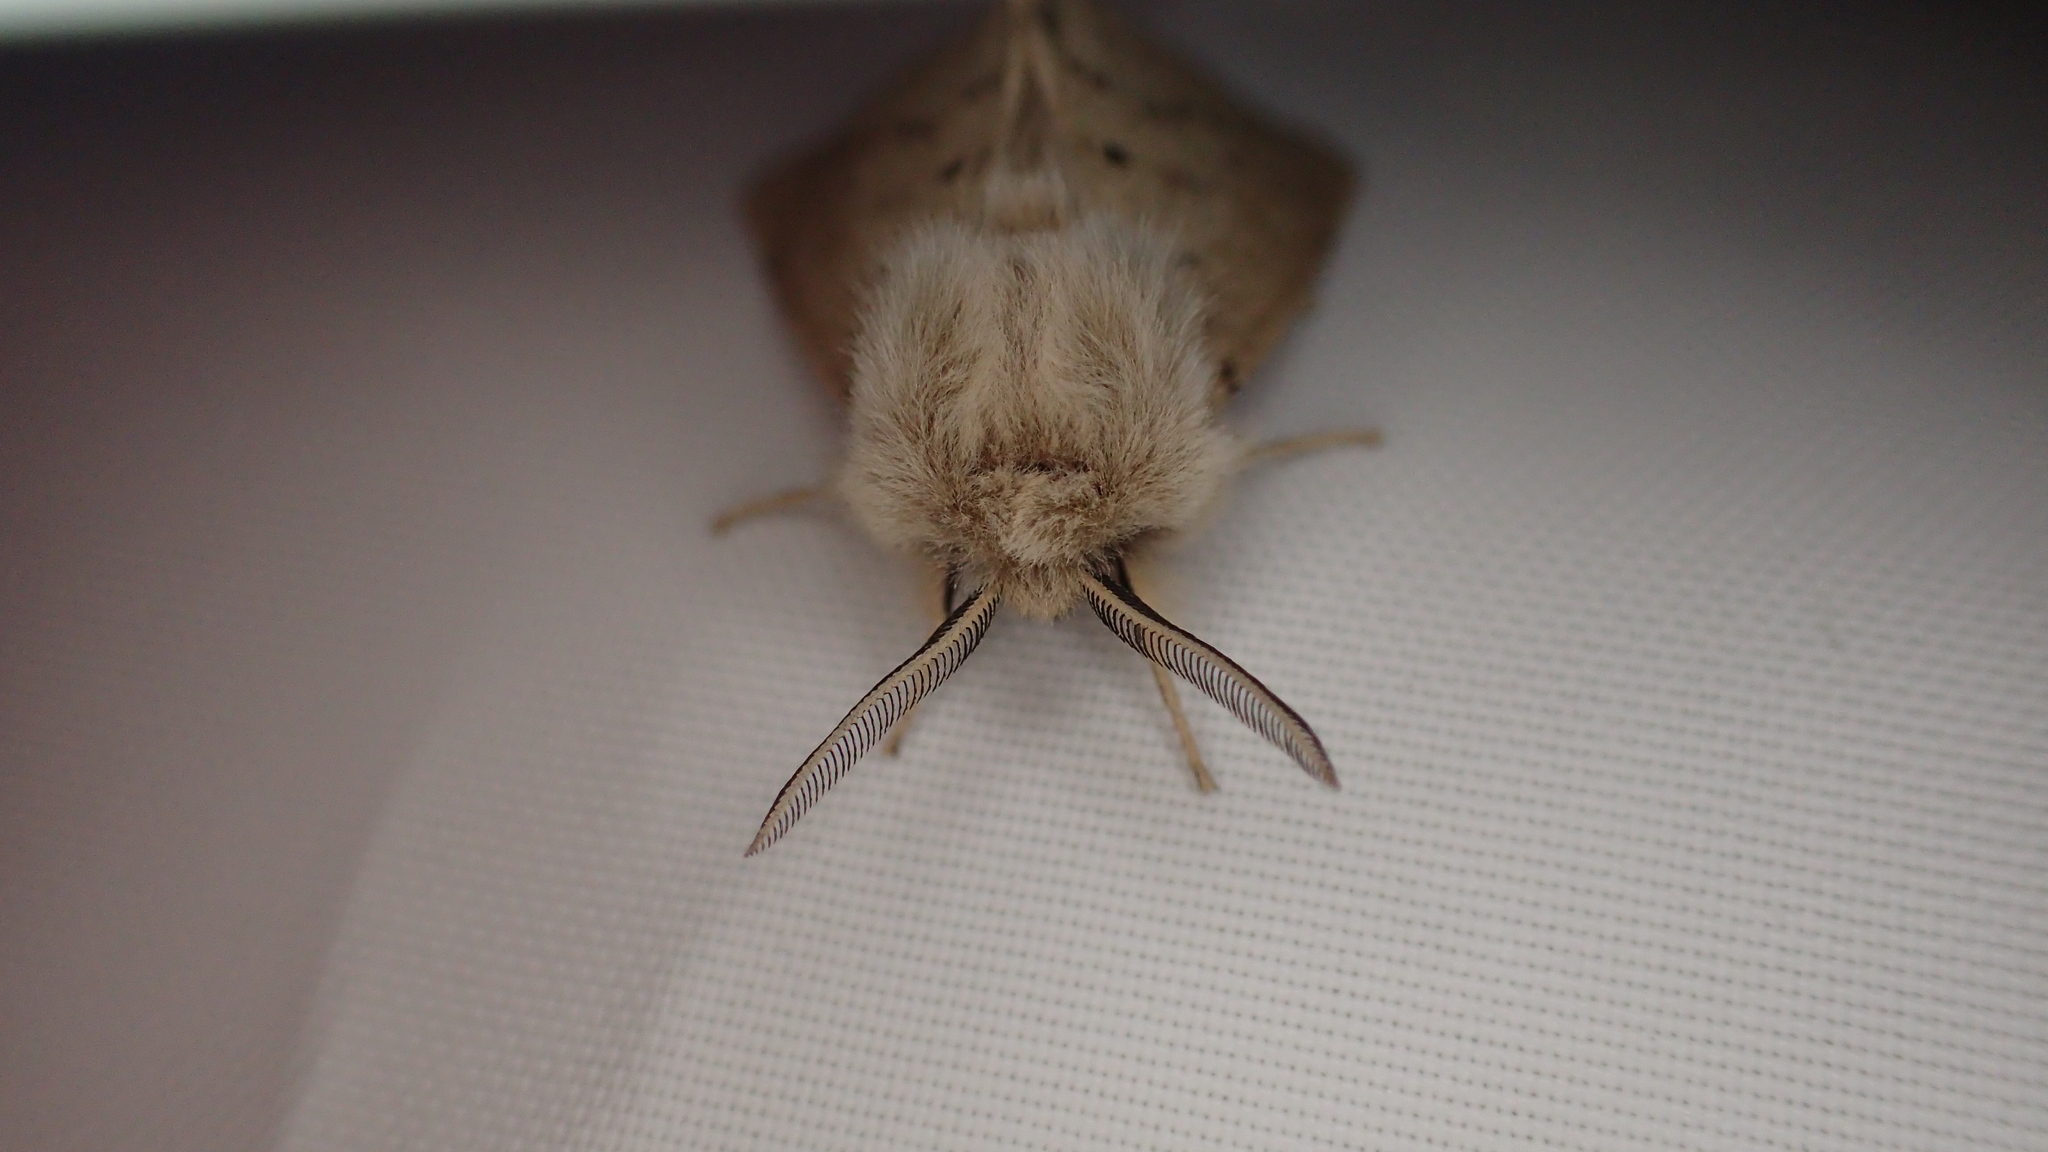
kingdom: Animalia
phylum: Arthropoda
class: Insecta
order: Lepidoptera
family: Erebidae
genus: Spilosoma
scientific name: Spilosoma vagans
